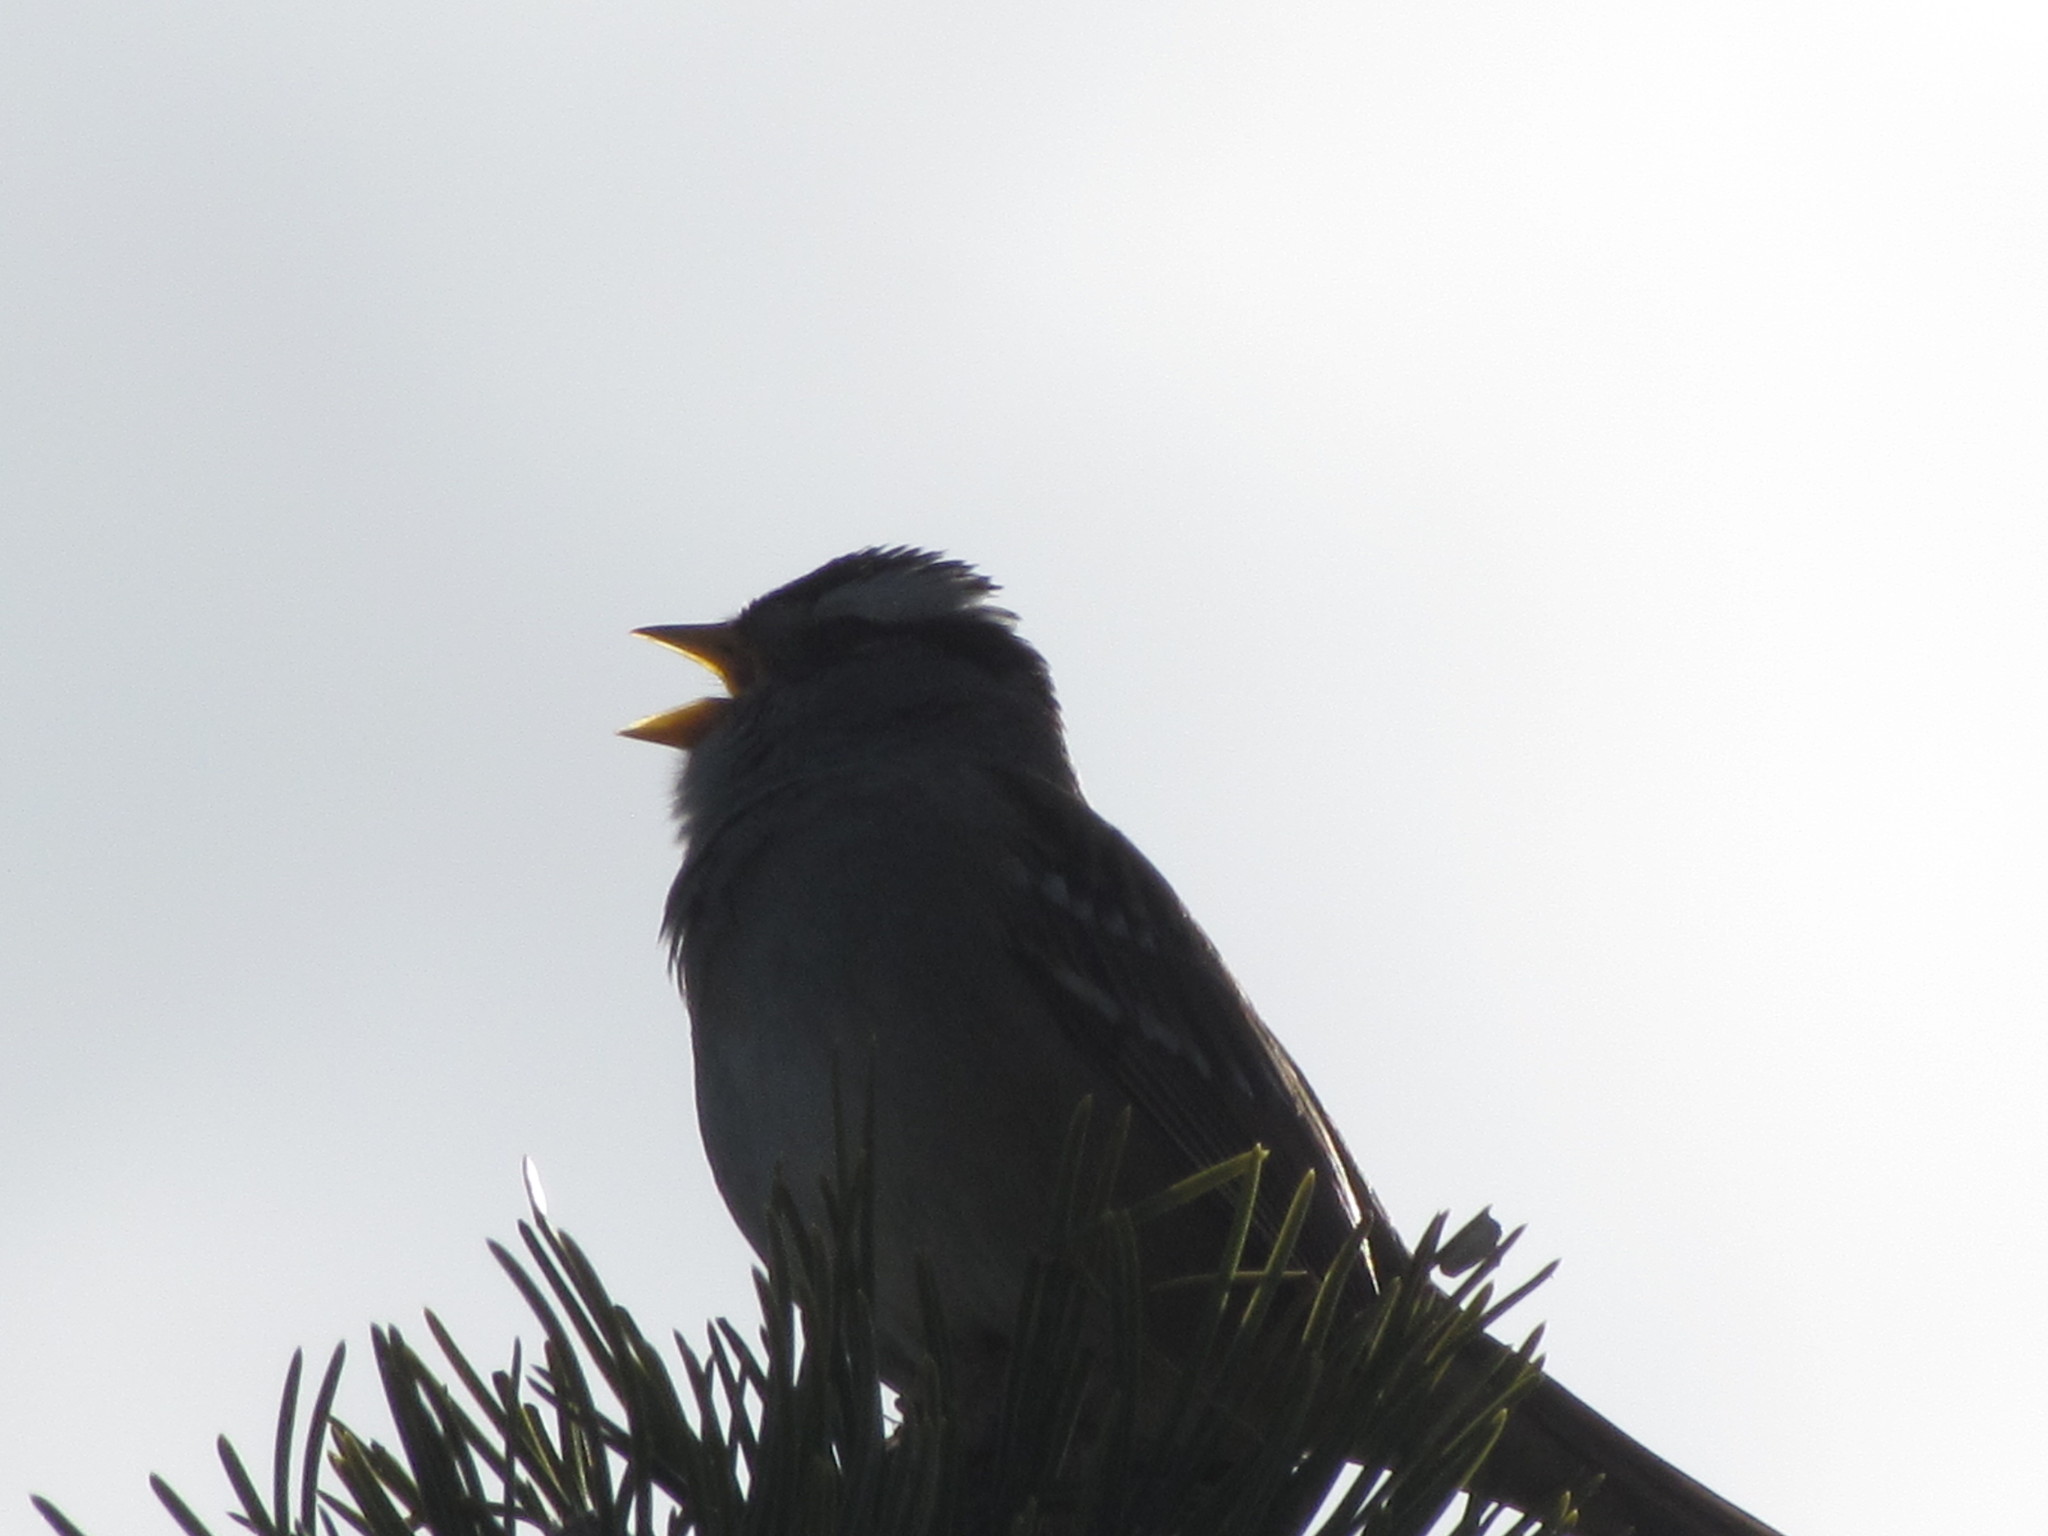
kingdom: Animalia
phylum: Chordata
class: Aves
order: Passeriformes
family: Passerellidae
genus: Zonotrichia
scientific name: Zonotrichia leucophrys
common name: White-crowned sparrow
